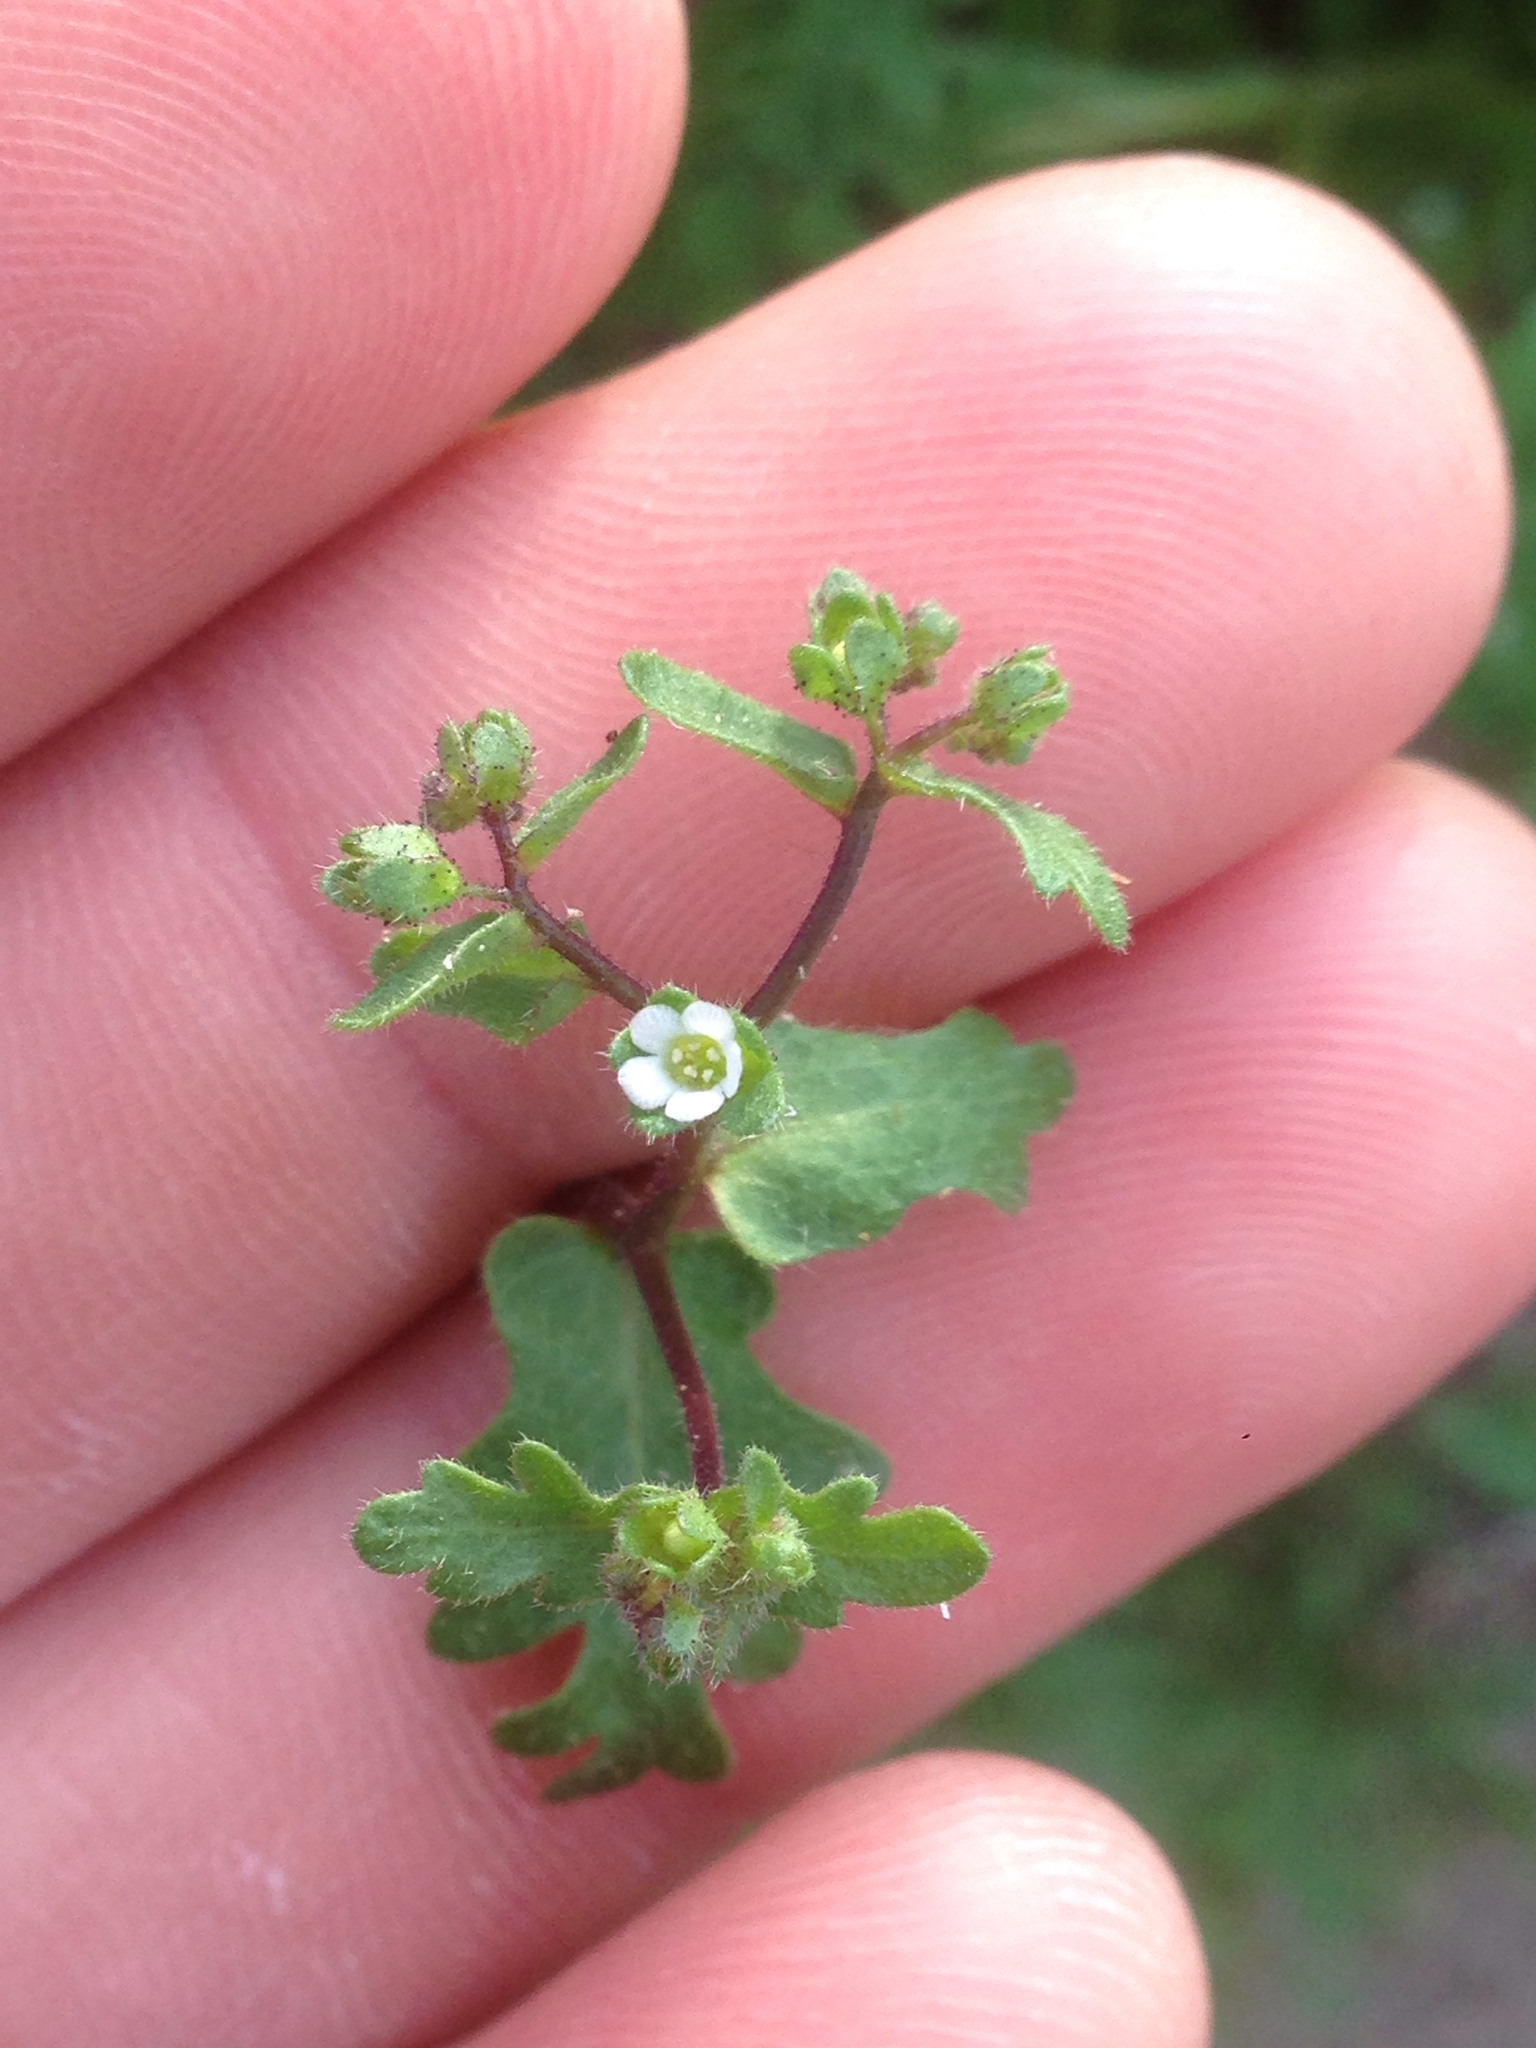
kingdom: Plantae
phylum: Tracheophyta
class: Magnoliopsida
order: Boraginales
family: Hydrophyllaceae
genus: Eucrypta
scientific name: Eucrypta micrantha
